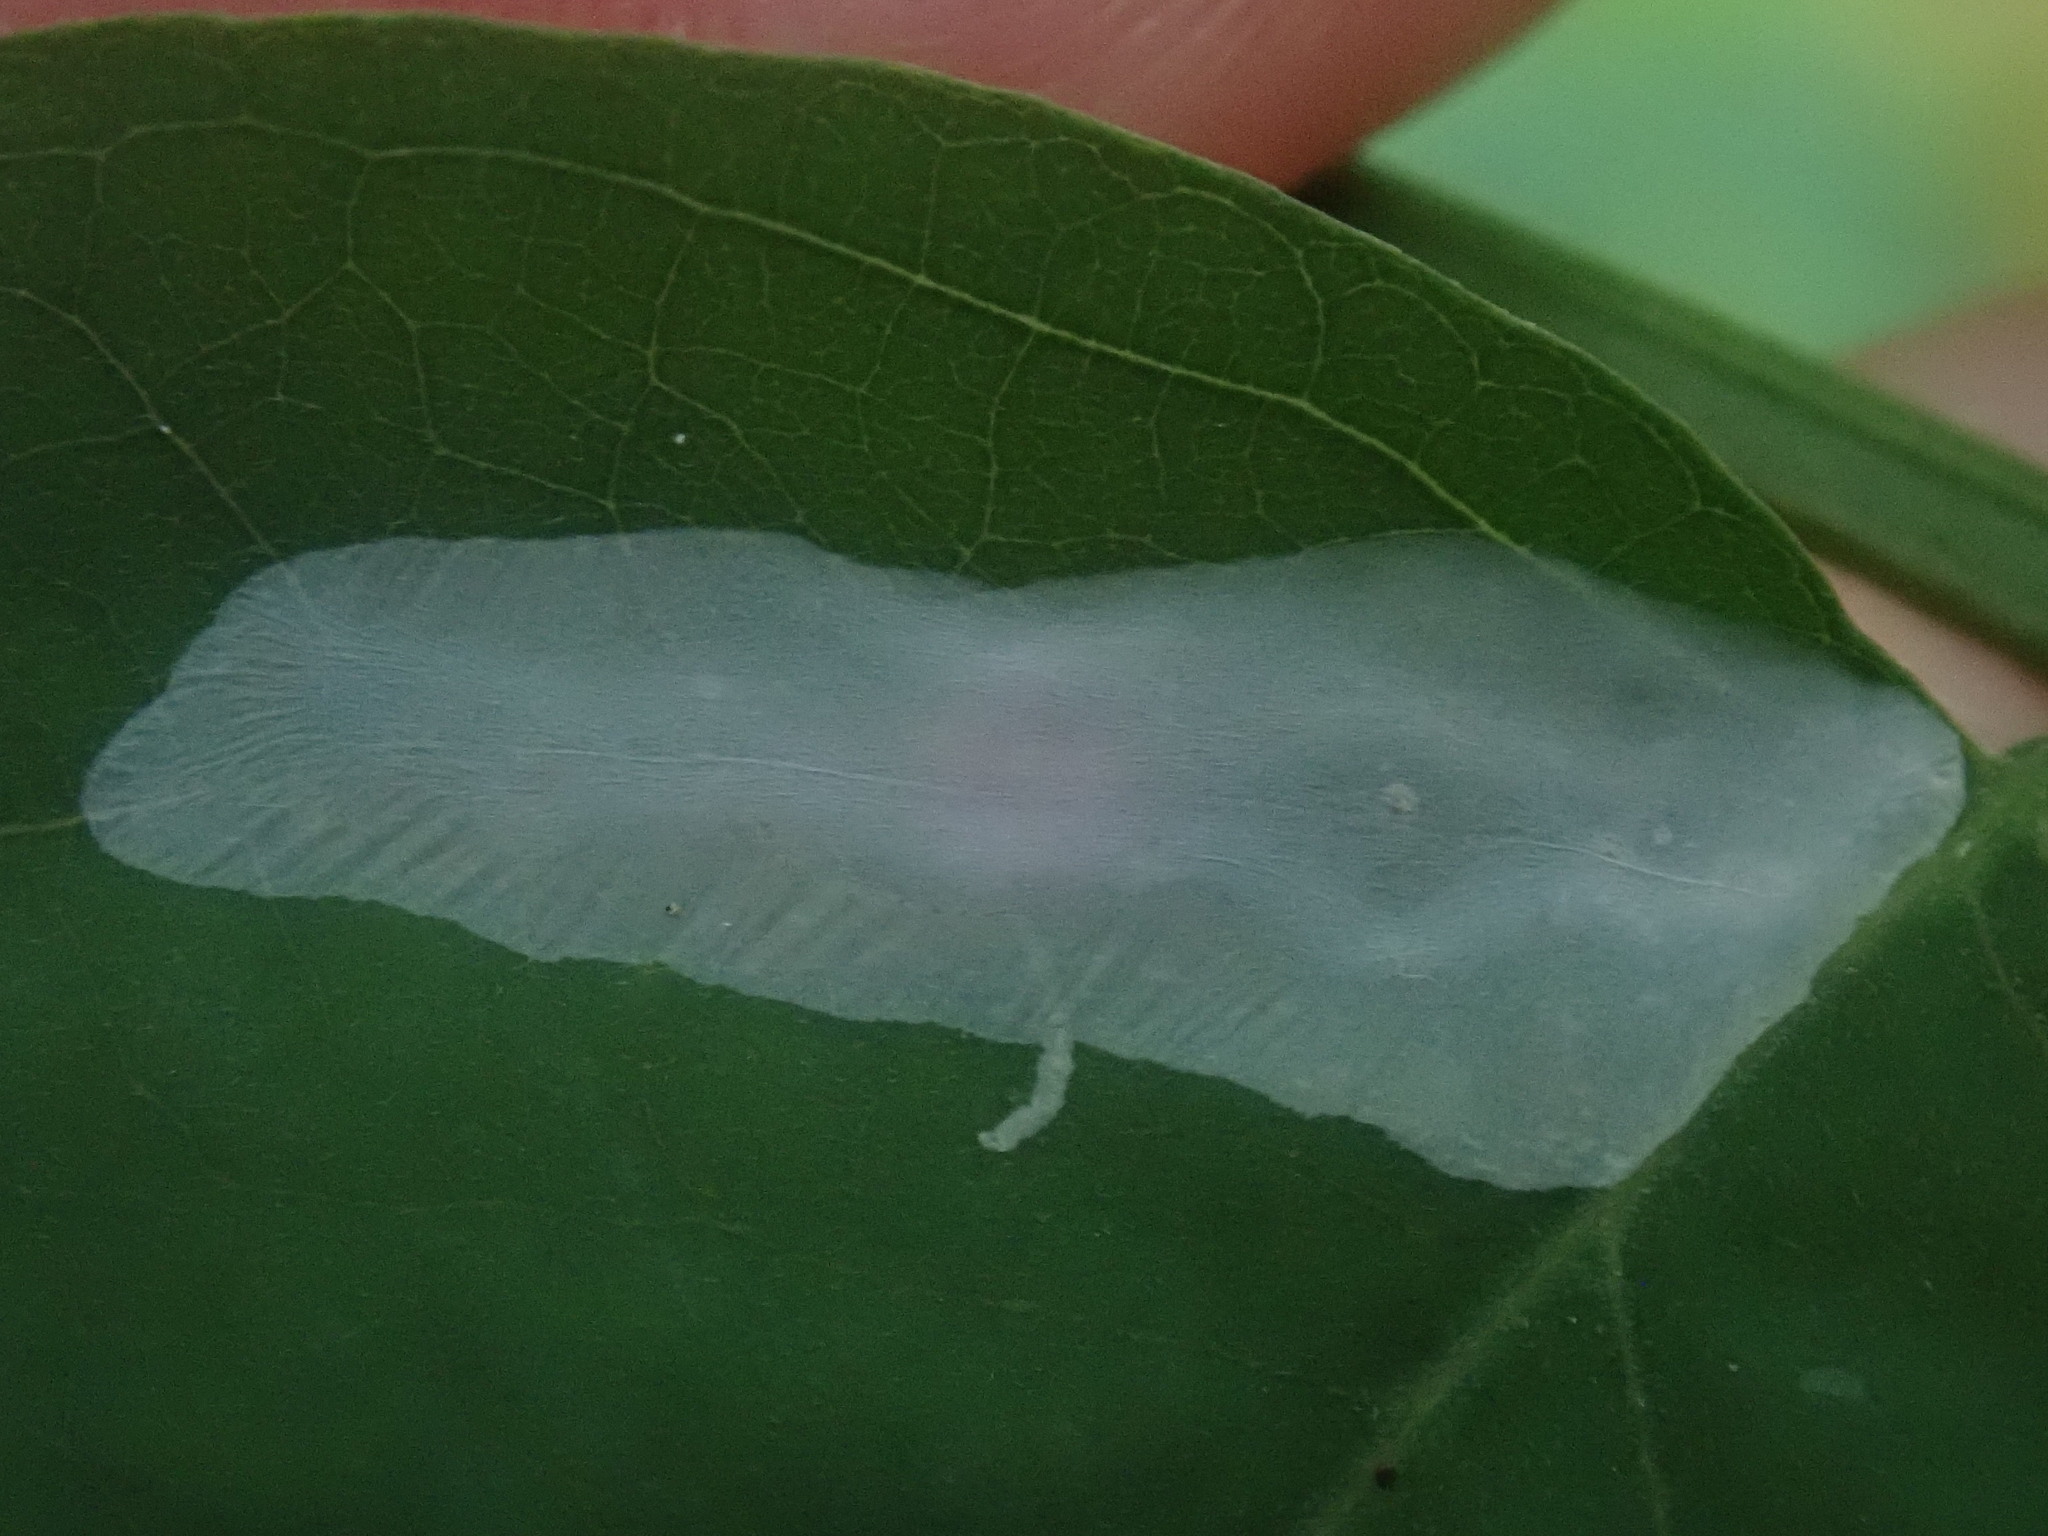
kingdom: Animalia
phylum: Arthropoda
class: Insecta
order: Lepidoptera
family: Gracillariidae
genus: Macrosaccus
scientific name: Macrosaccus robiniella
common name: Leaf blotch miner moth
